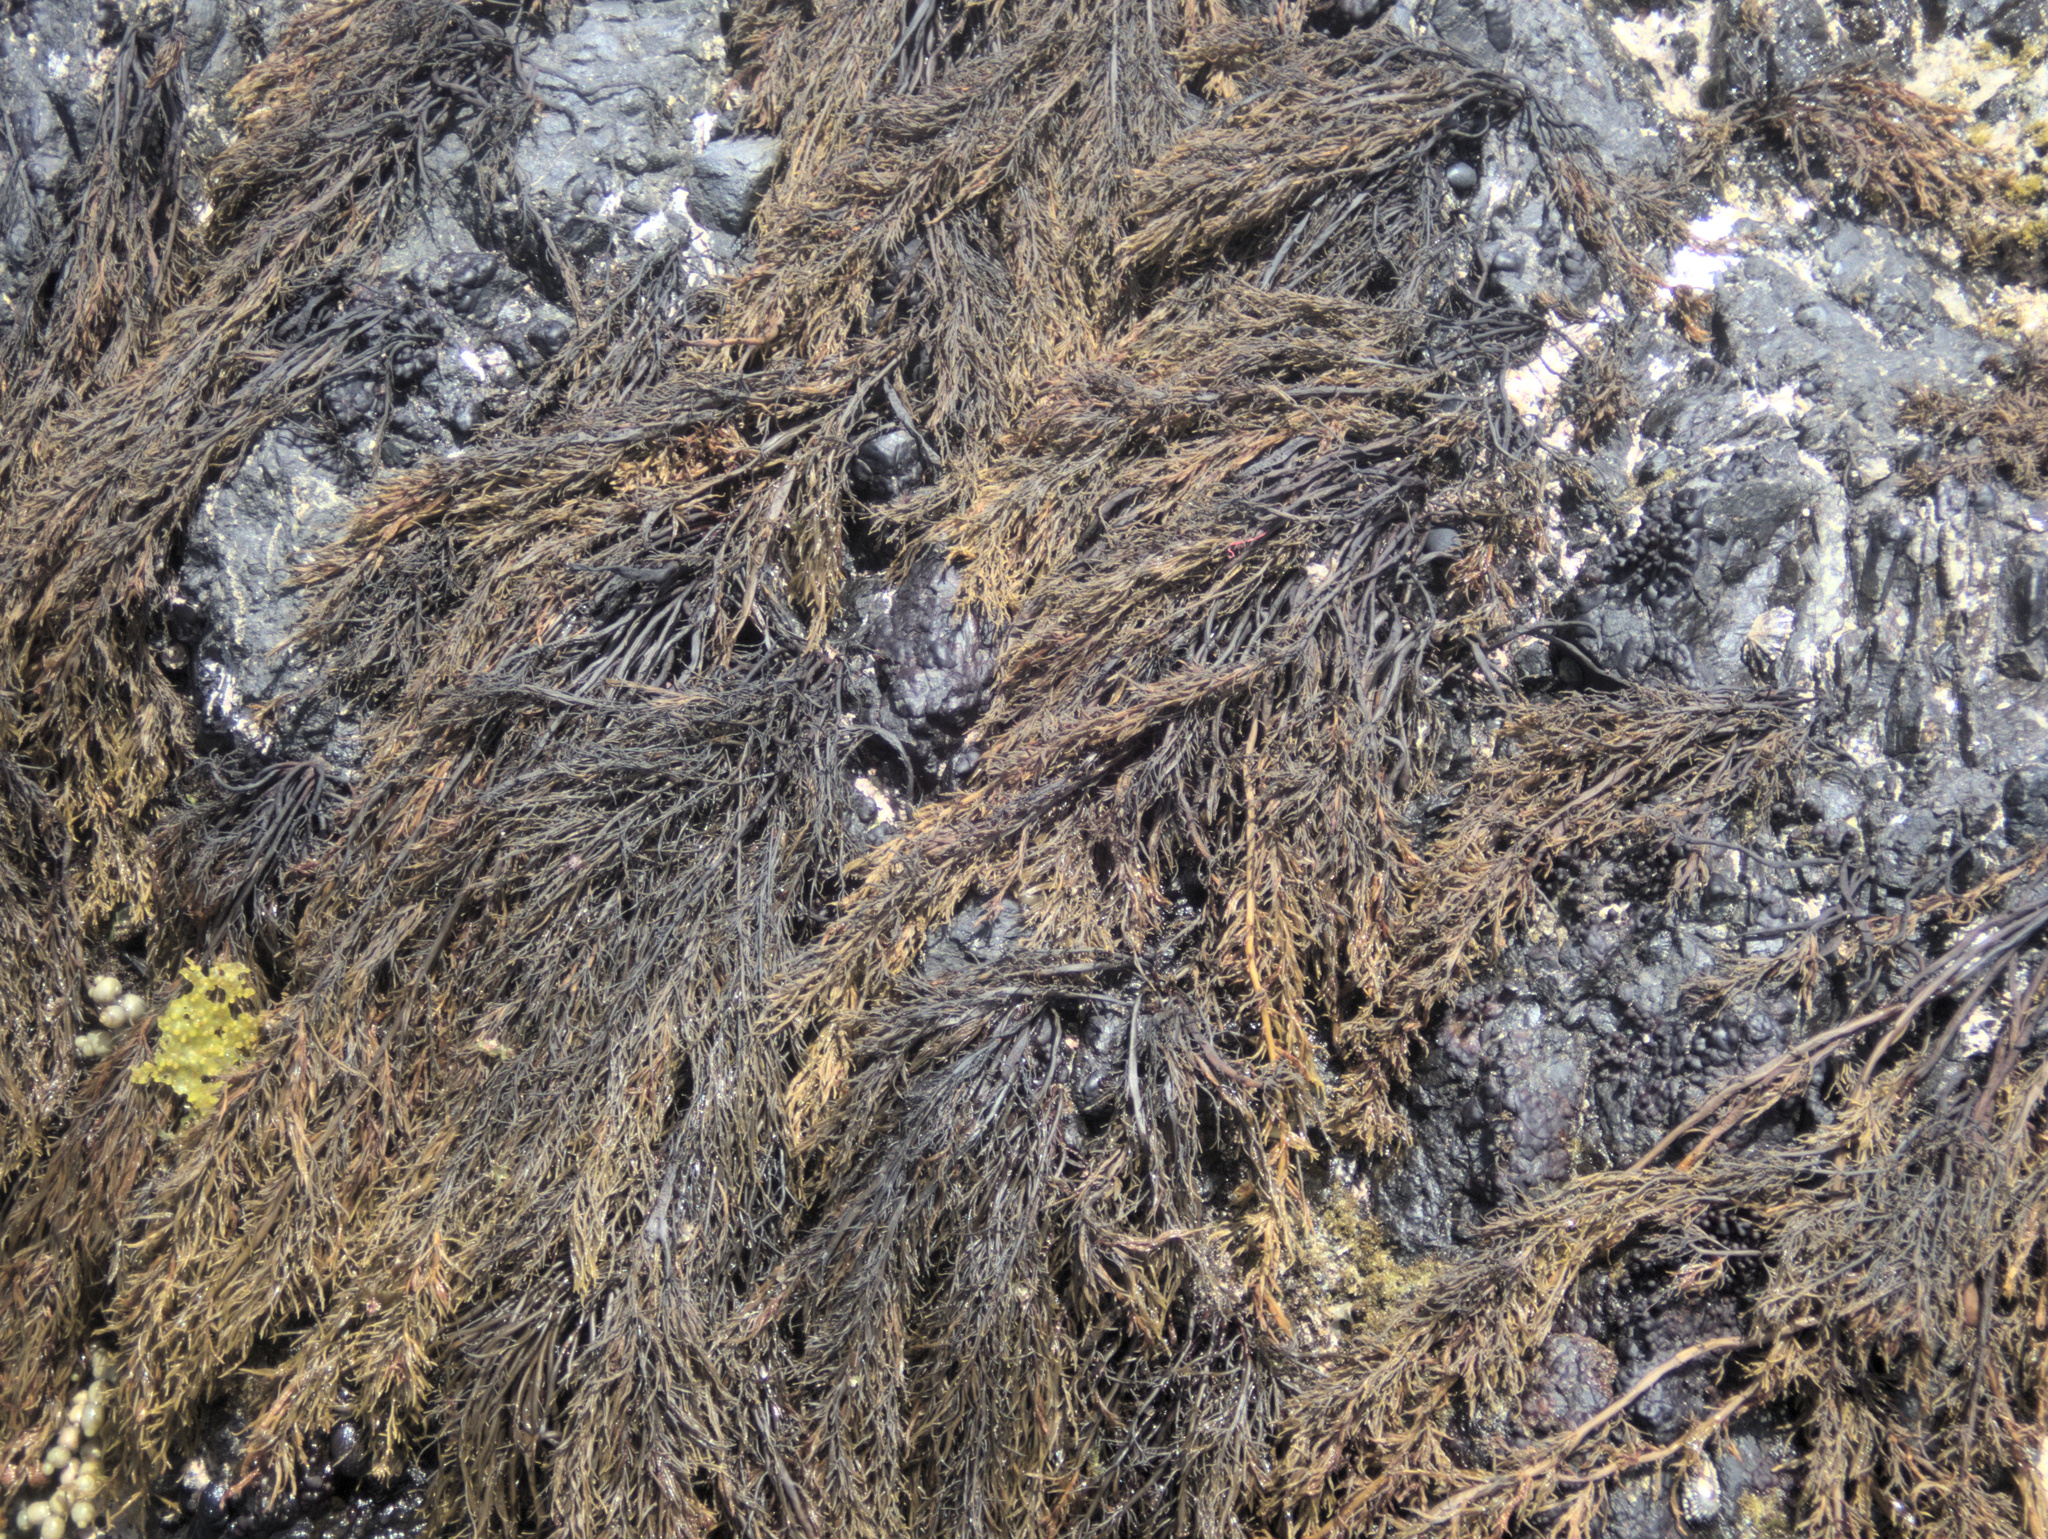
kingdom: Chromista
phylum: Ochrophyta
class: Phaeophyceae
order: Scytothamnales
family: Scytothamnaceae
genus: Scytothamnus
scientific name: Scytothamnus australis
